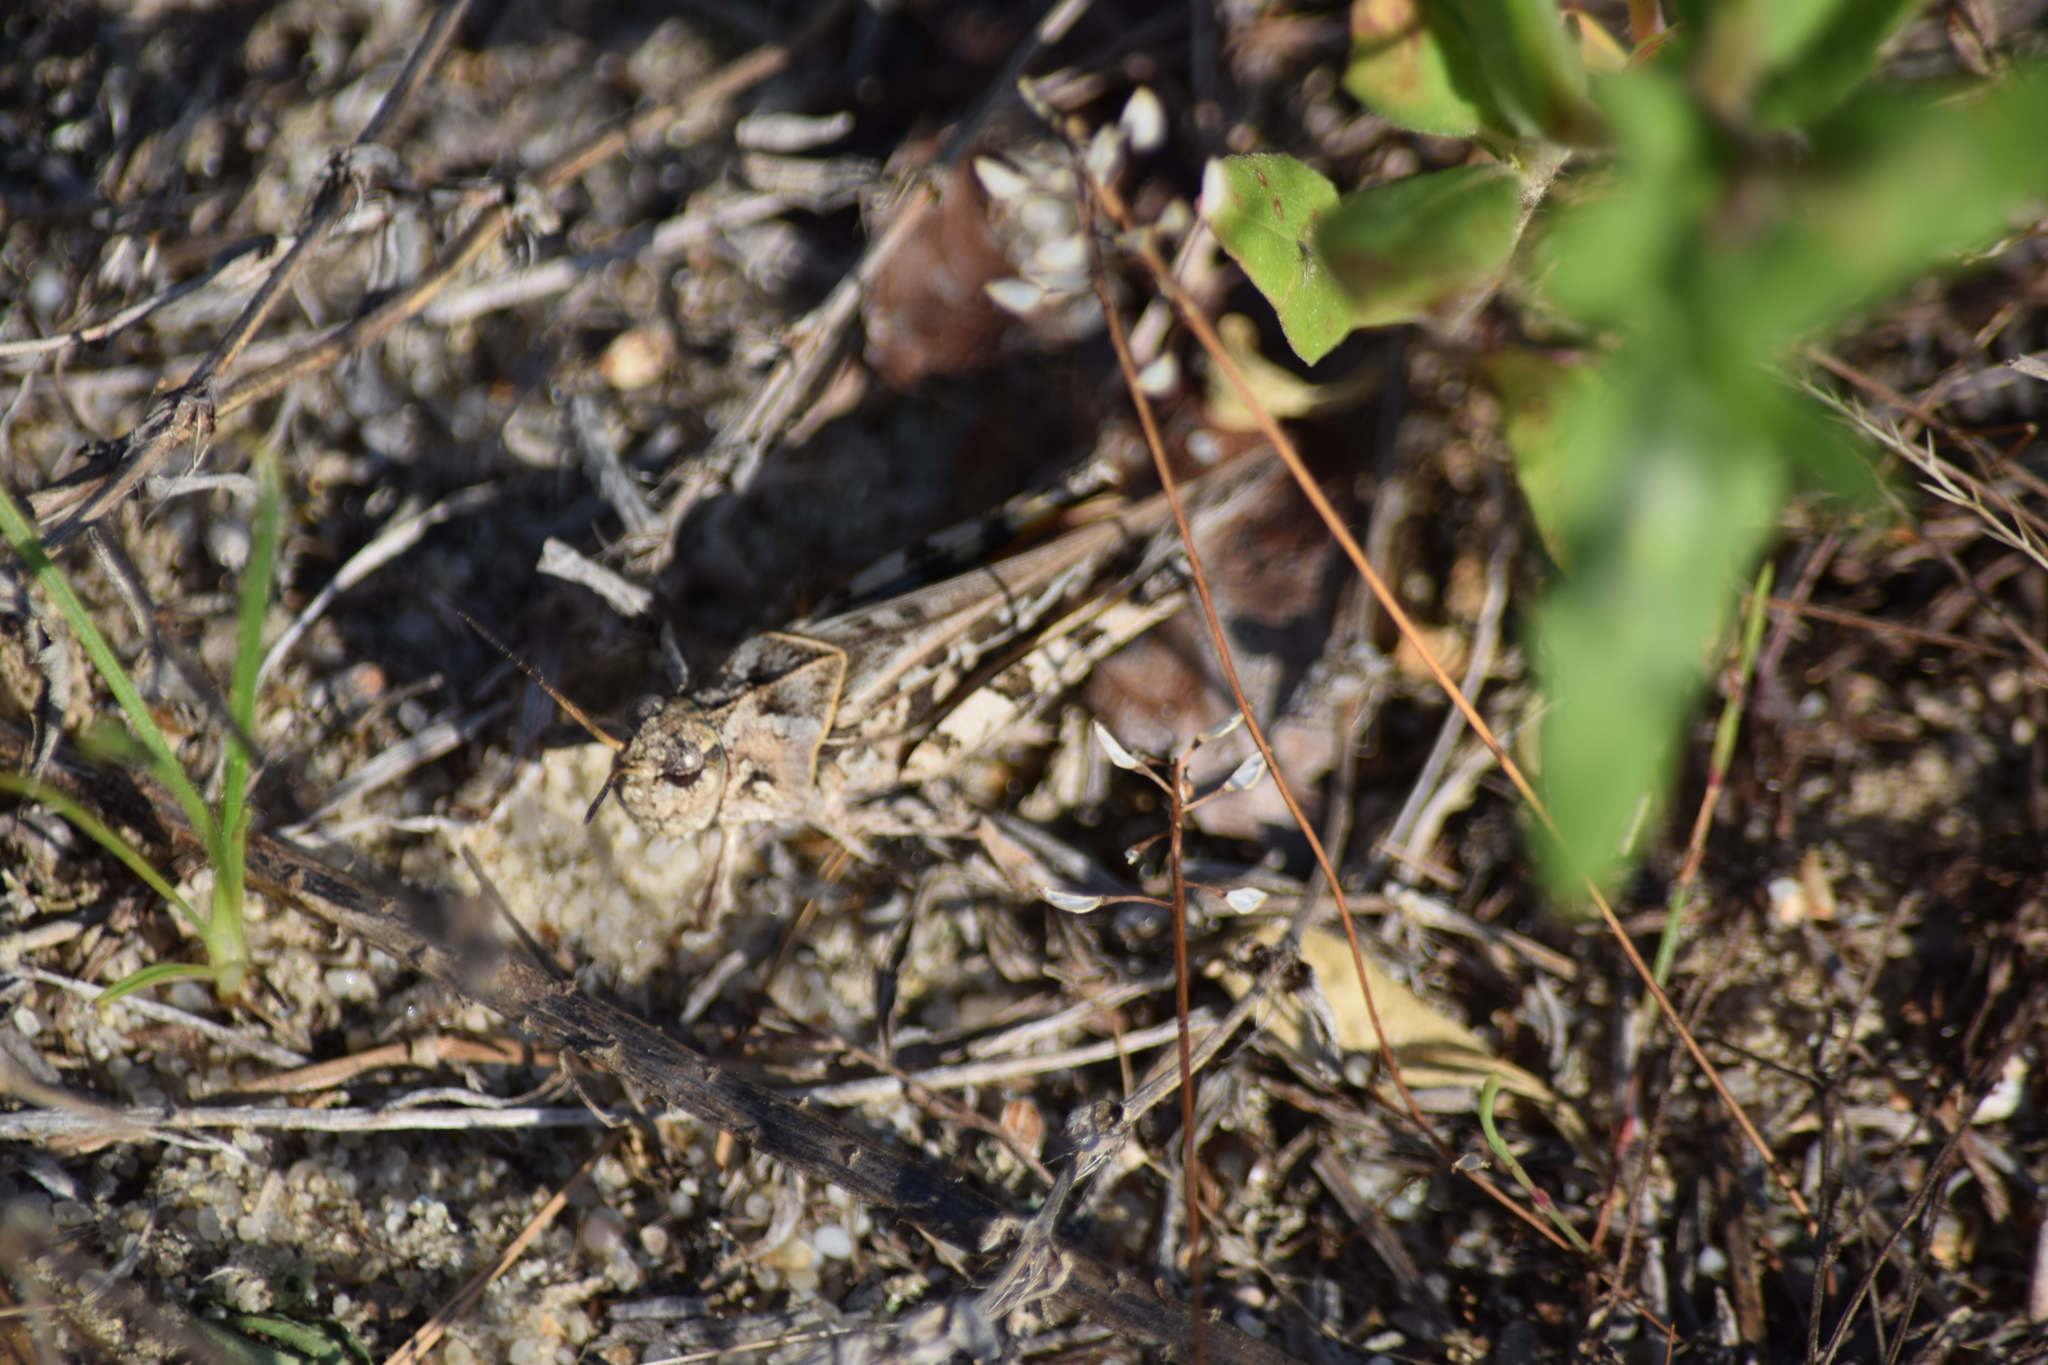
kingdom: Animalia
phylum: Arthropoda
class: Insecta
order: Orthoptera
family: Acrididae
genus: Pardalophora
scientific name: Pardalophora phoenicoptera
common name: Orange-winged grasshopper
